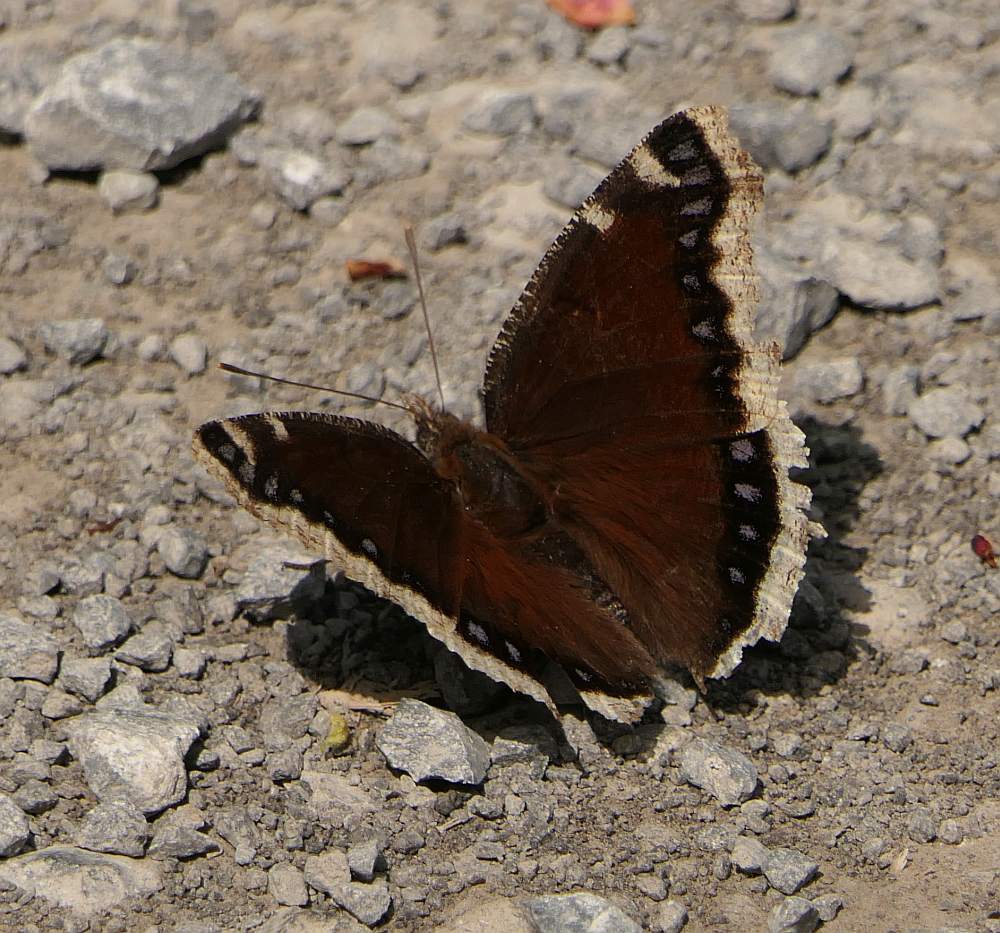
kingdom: Animalia
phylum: Arthropoda
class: Insecta
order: Lepidoptera
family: Nymphalidae
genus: Nymphalis
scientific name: Nymphalis antiopa
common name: Camberwell beauty
